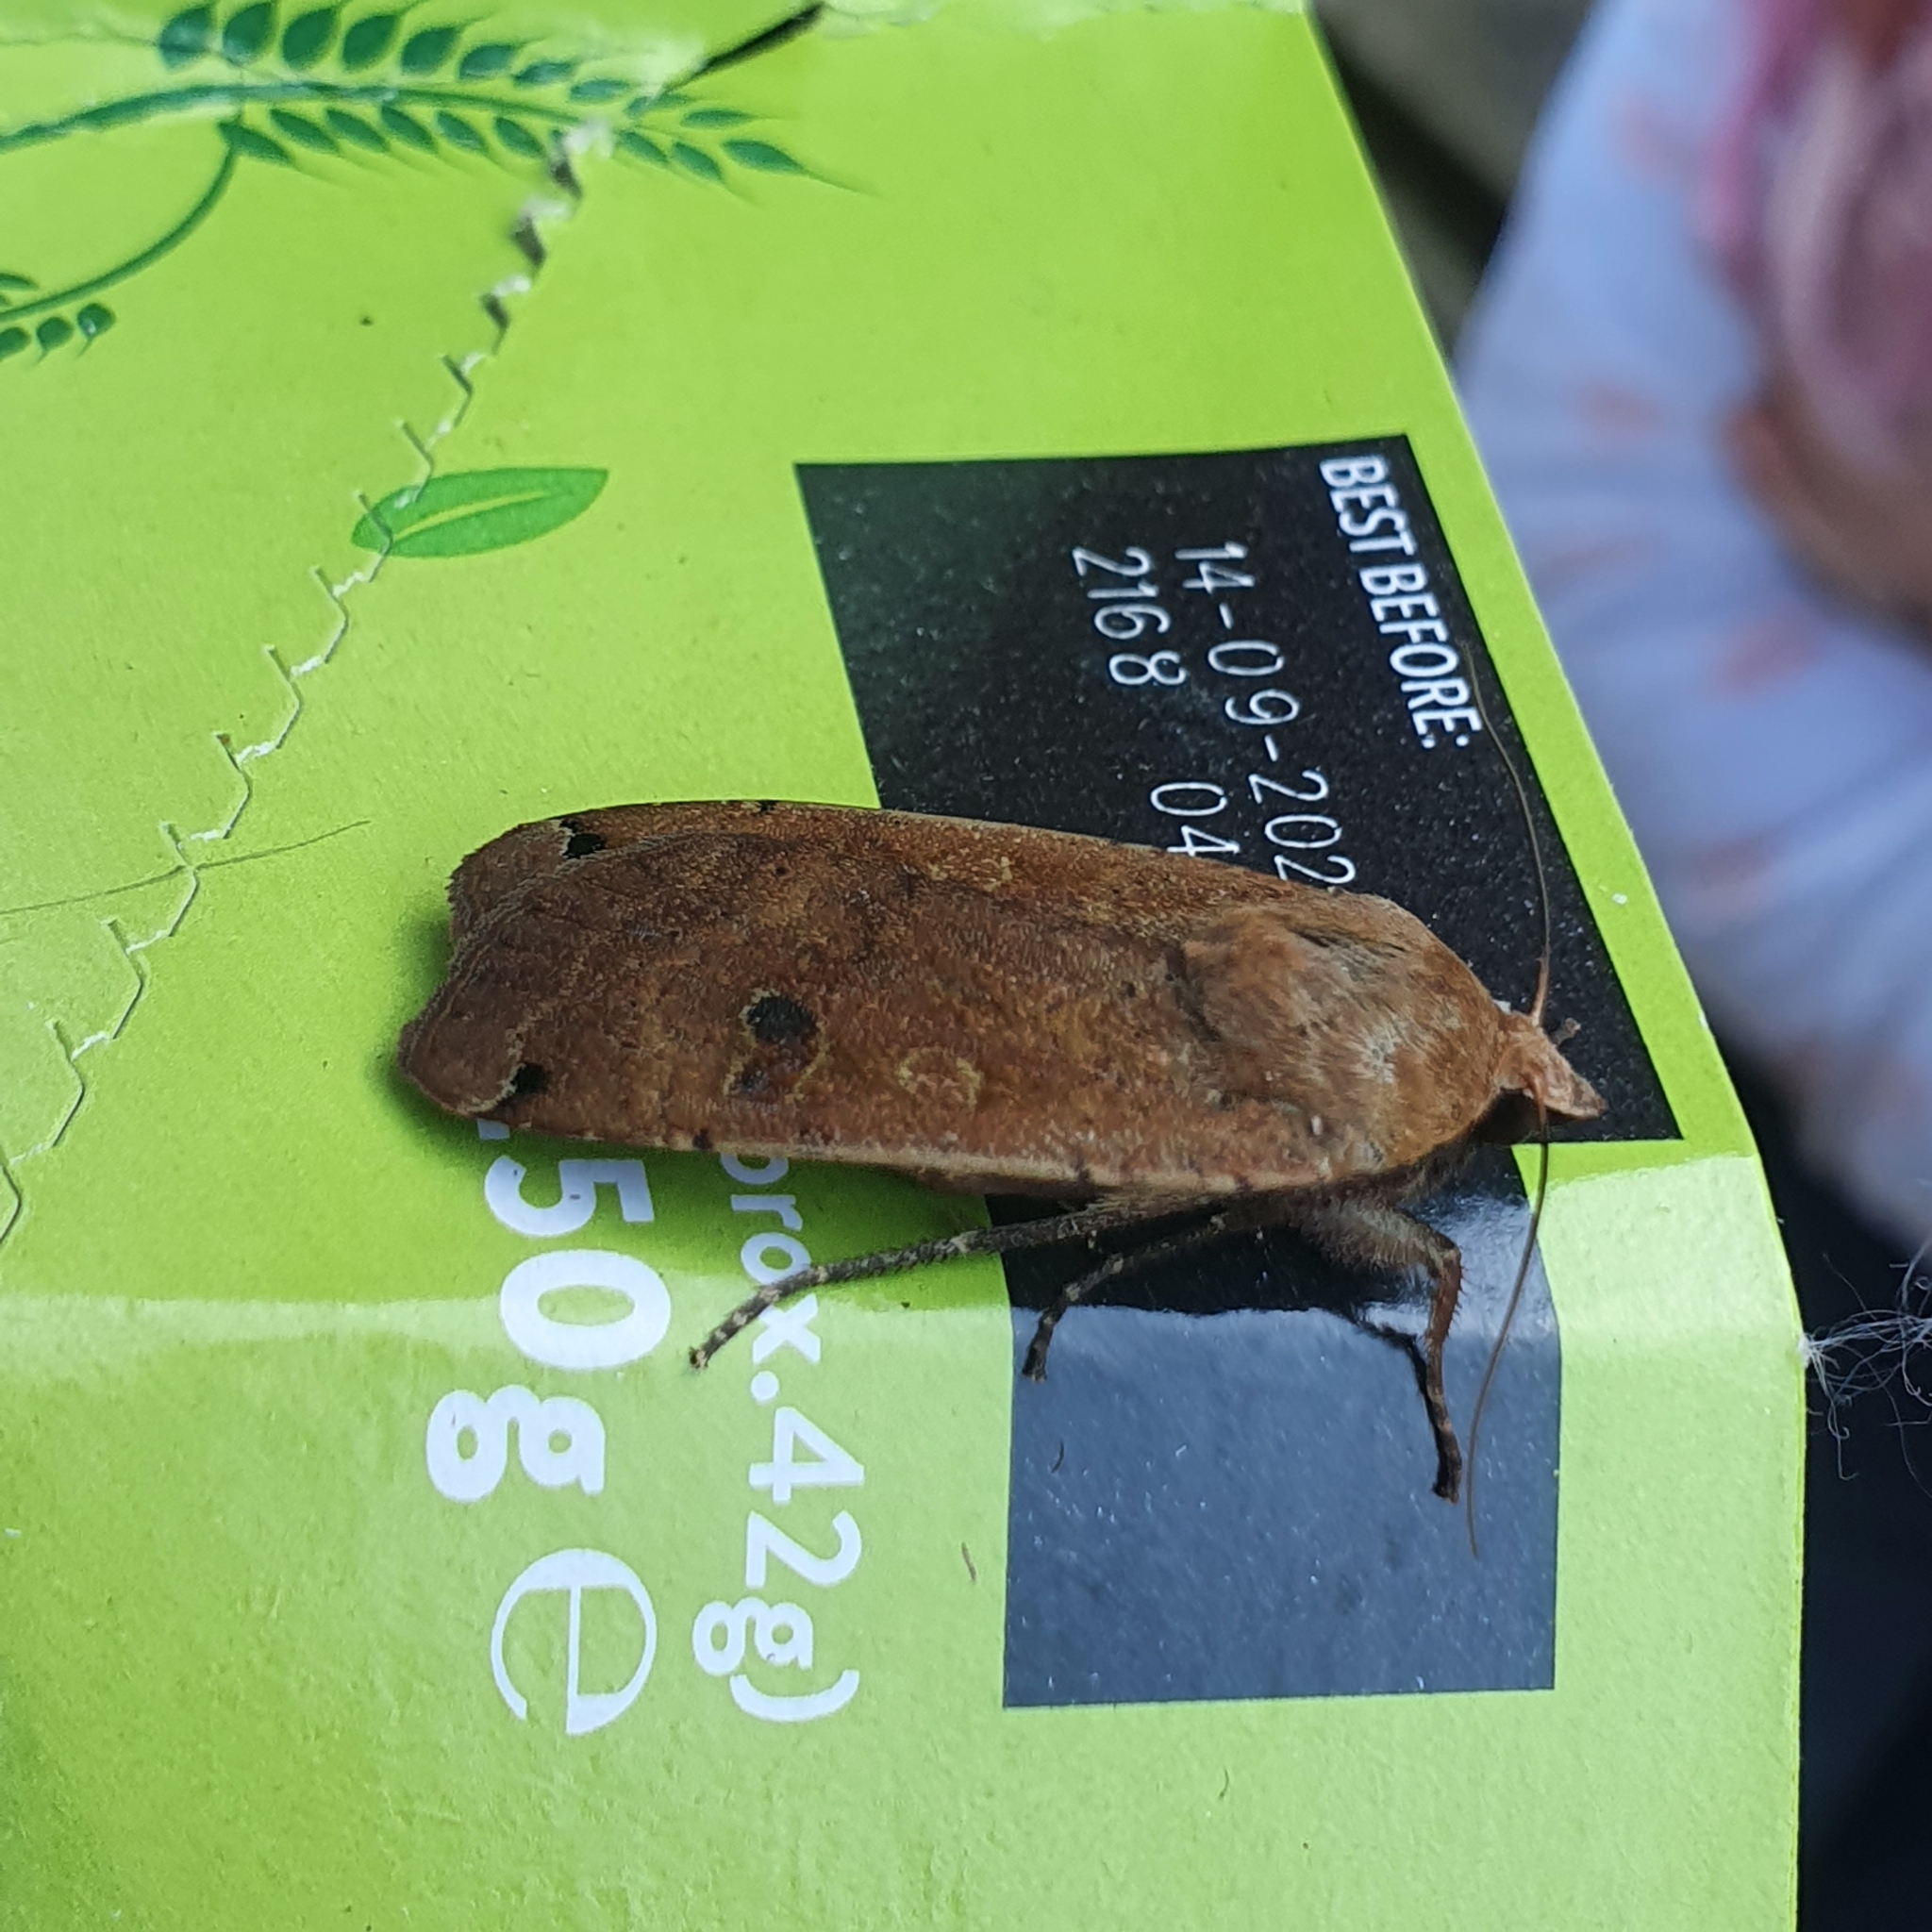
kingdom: Animalia
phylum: Arthropoda
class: Insecta
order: Lepidoptera
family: Noctuidae
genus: Noctua
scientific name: Noctua pronuba
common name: Large yellow underwing
